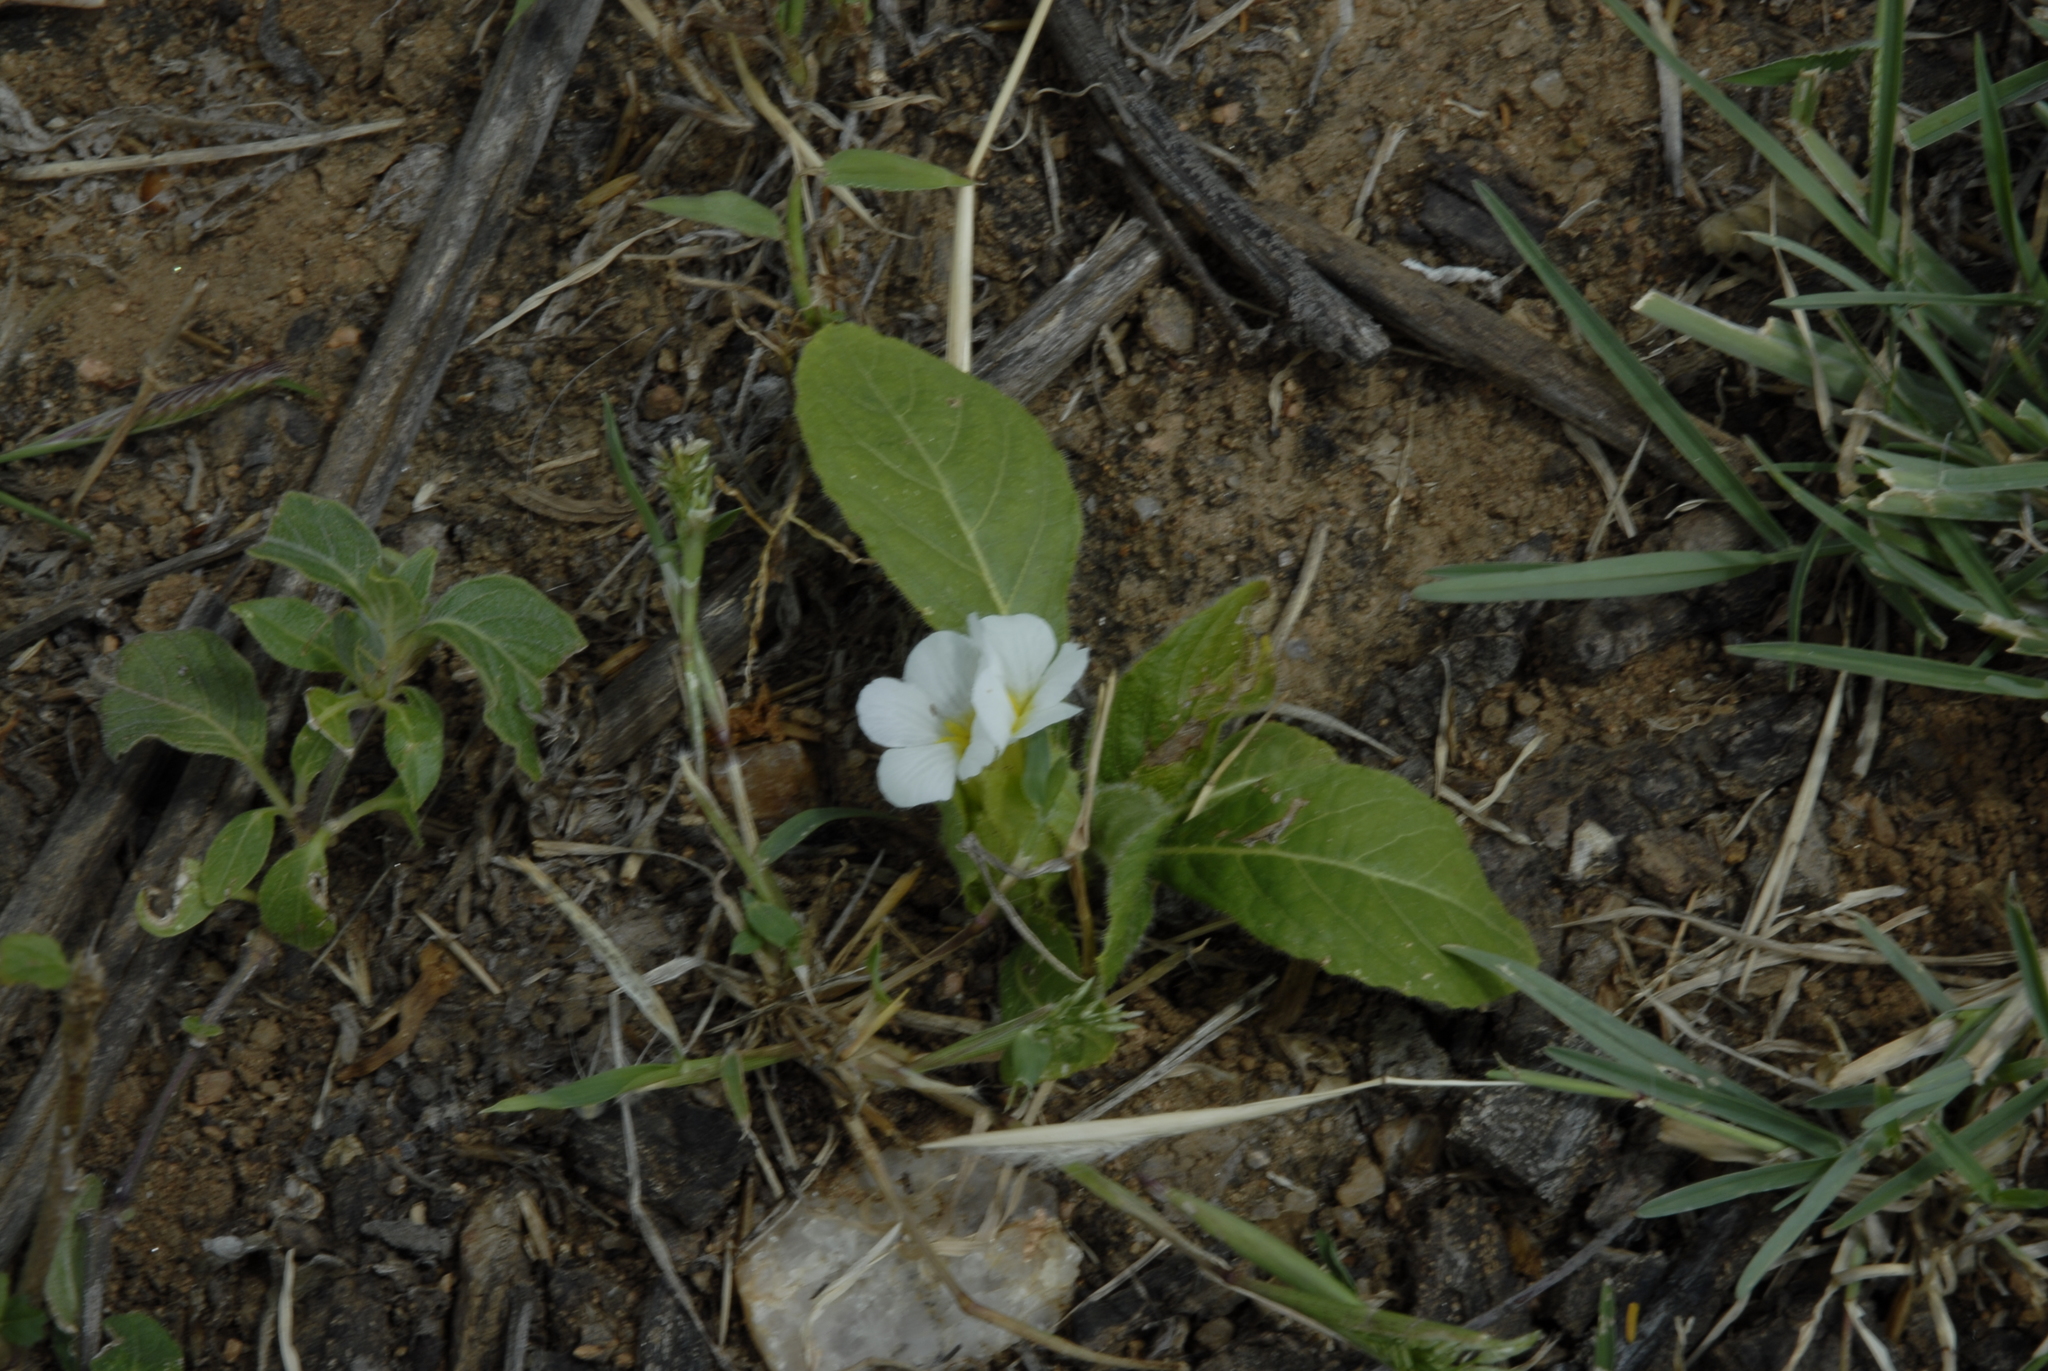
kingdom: Plantae
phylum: Tracheophyta
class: Magnoliopsida
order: Lamiales
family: Acanthaceae
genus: Crabbea
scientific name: Crabbea velutina
